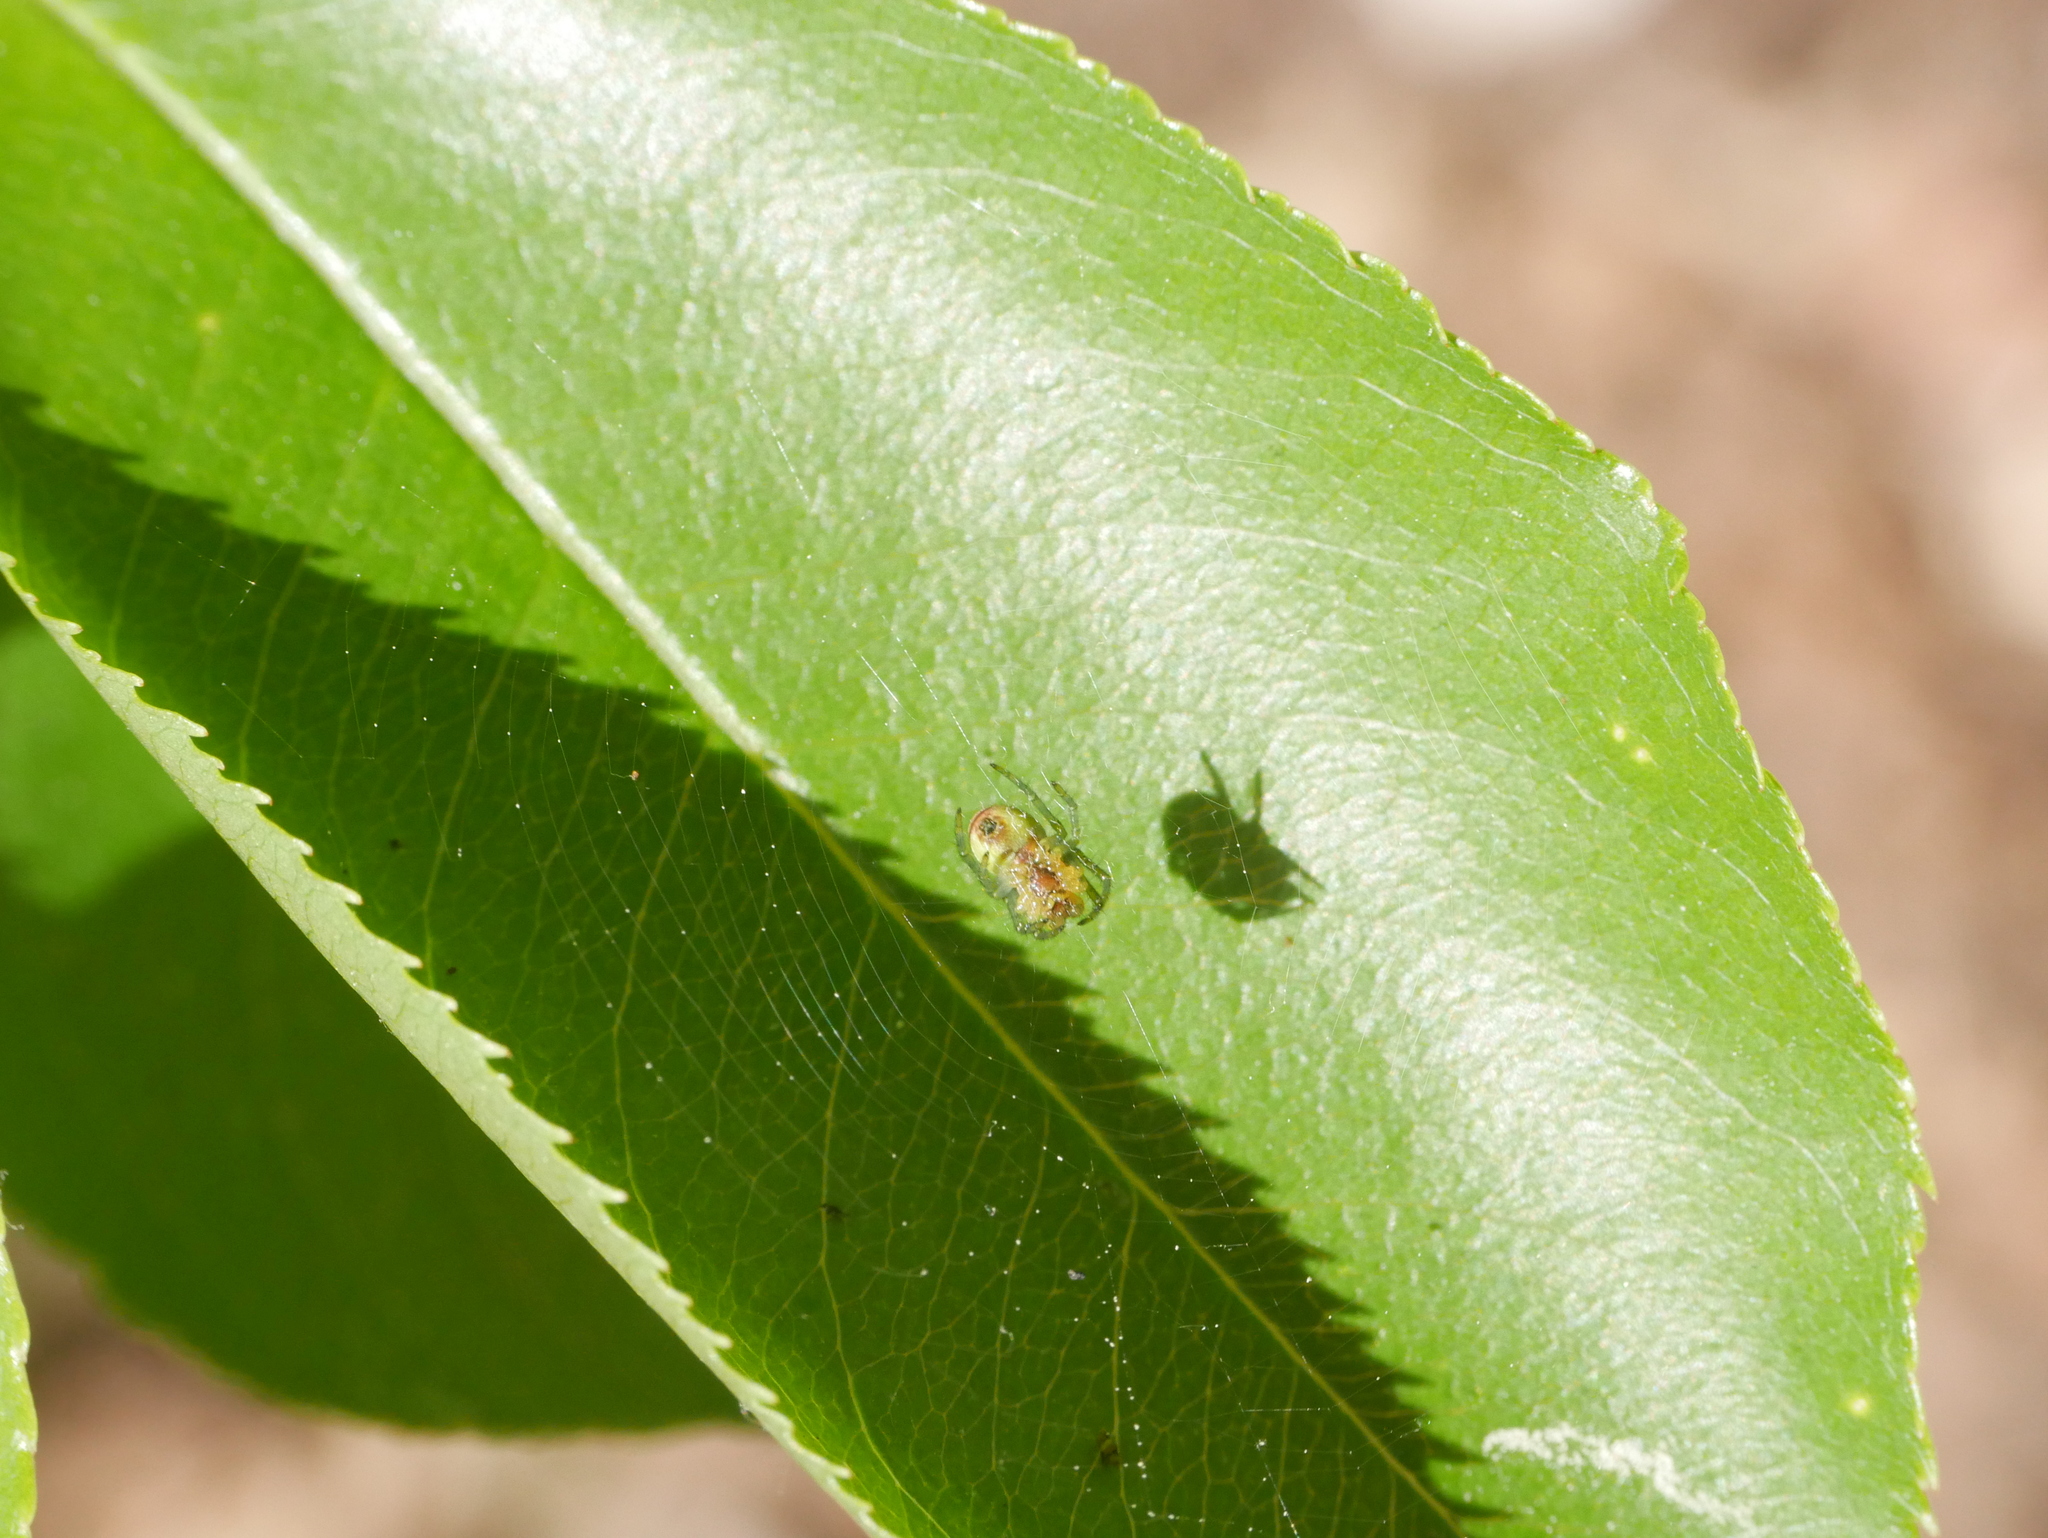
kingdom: Animalia
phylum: Arthropoda
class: Arachnida
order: Araneae
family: Araneidae
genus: Araniella
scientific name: Araniella
